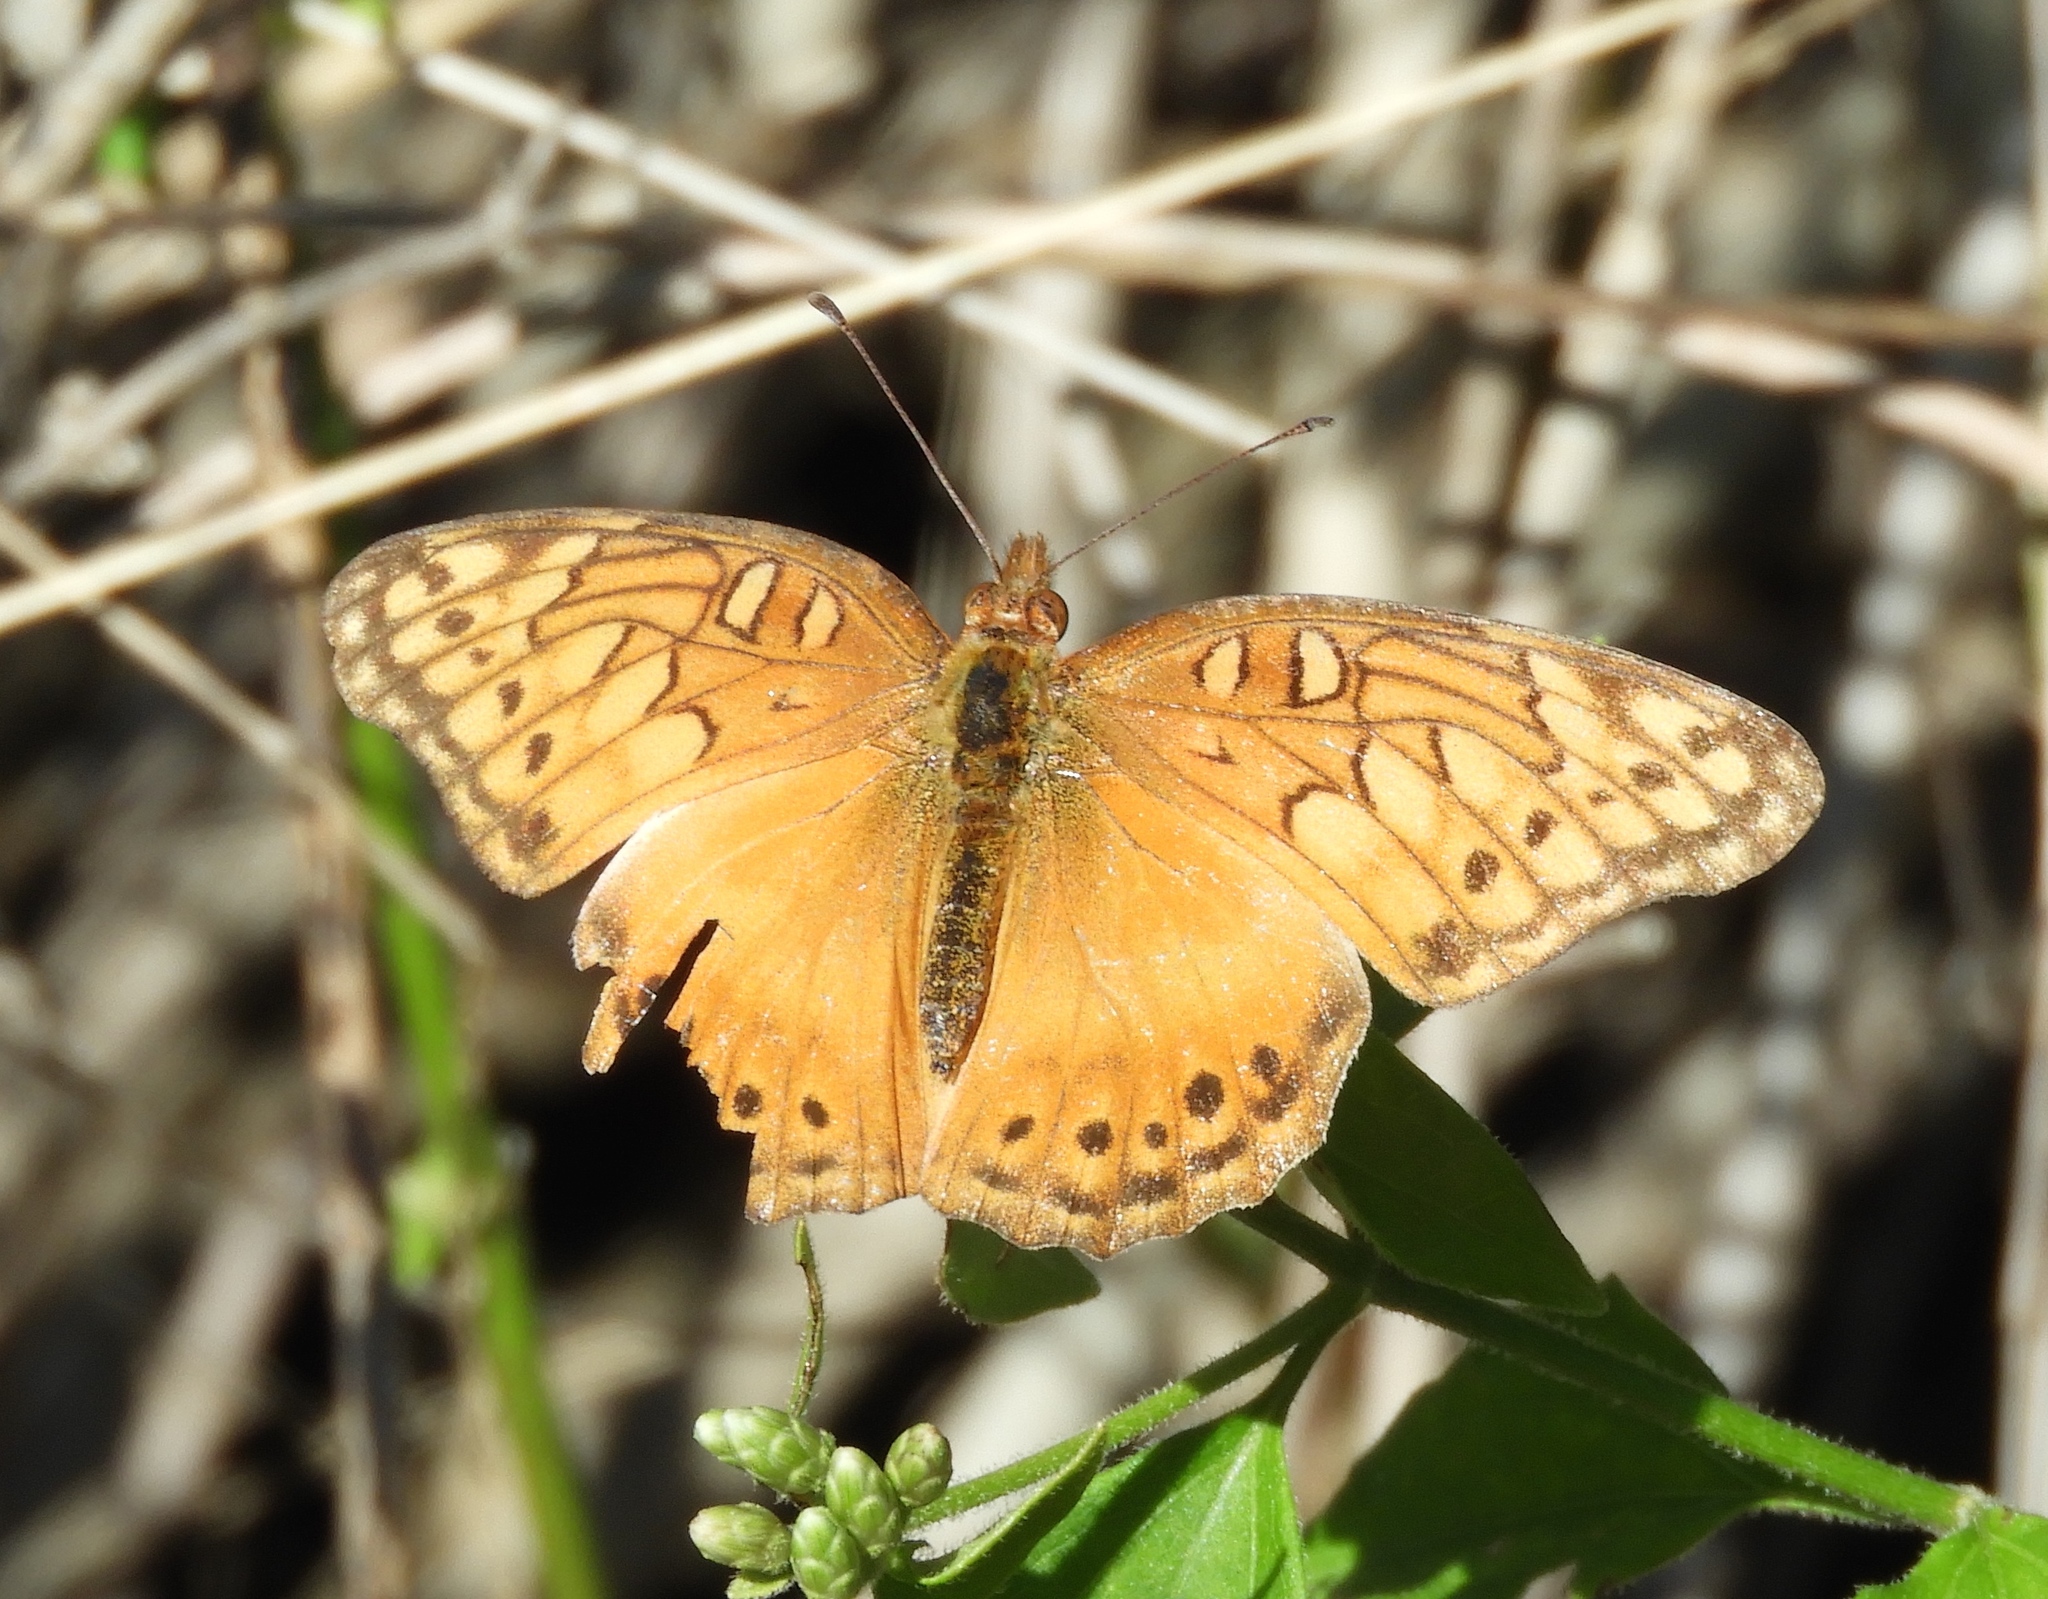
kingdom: Animalia
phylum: Arthropoda
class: Insecta
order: Lepidoptera
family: Nymphalidae
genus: Euptoieta
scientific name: Euptoieta hegesia
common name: Mexican fritillary
